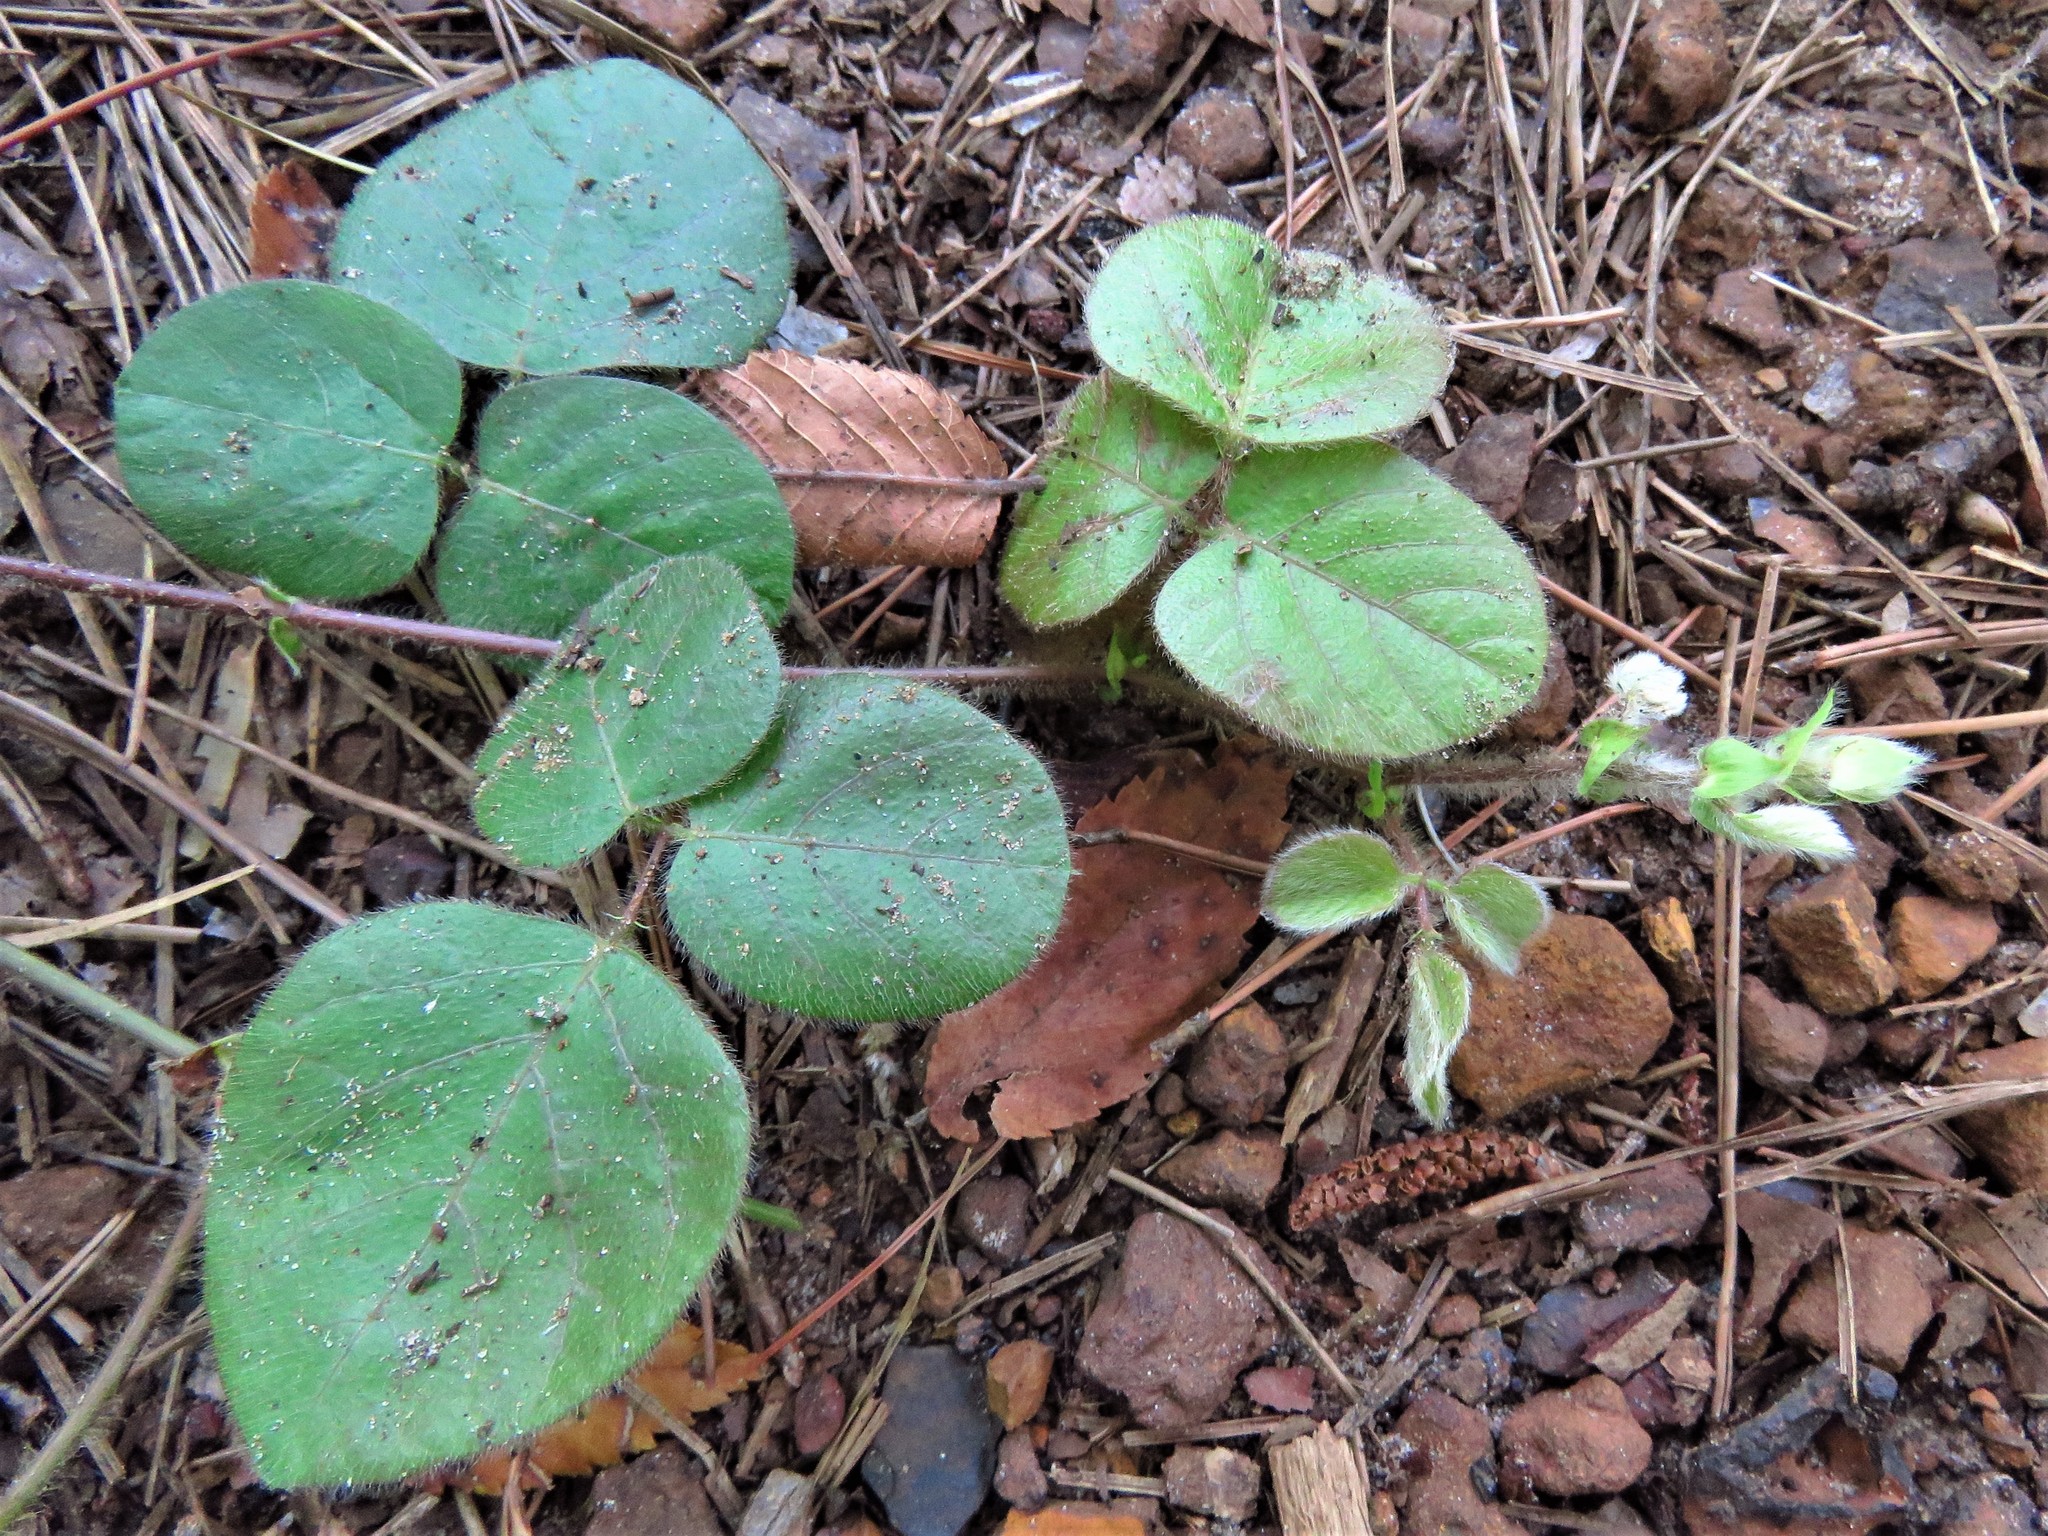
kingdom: Plantae
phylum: Tracheophyta
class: Magnoliopsida
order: Fabales
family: Fabaceae
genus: Desmodium
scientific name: Desmodium rotundifolium
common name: Dollarleaf
